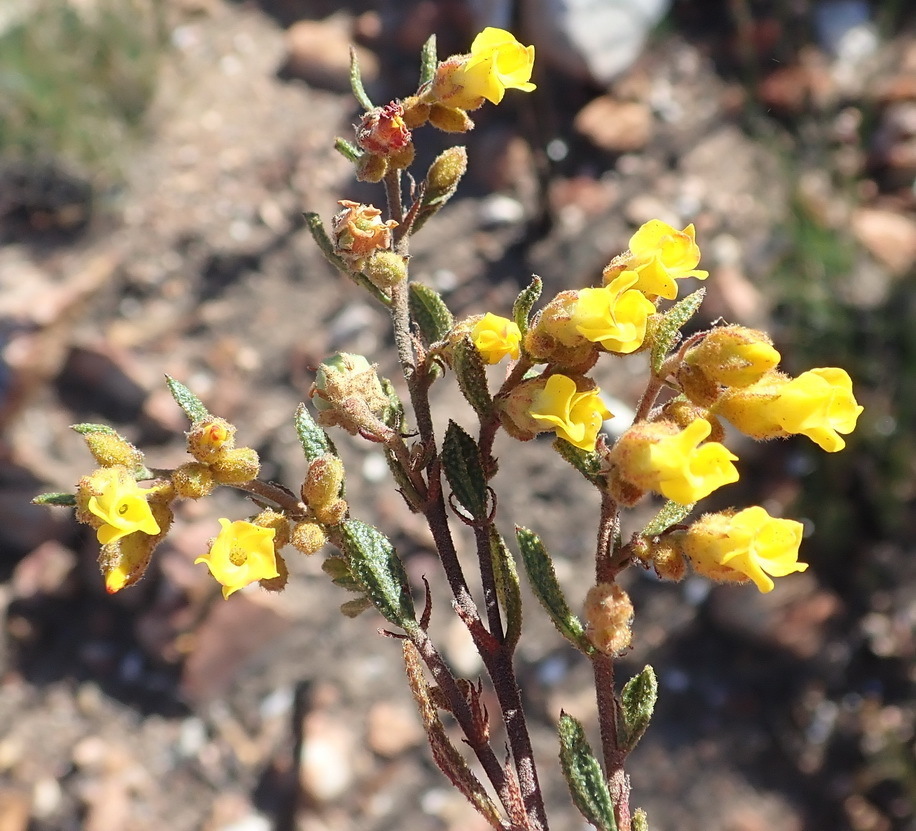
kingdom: Plantae
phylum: Tracheophyta
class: Magnoliopsida
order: Malvales
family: Malvaceae
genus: Hermannia
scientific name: Hermannia decipiens
